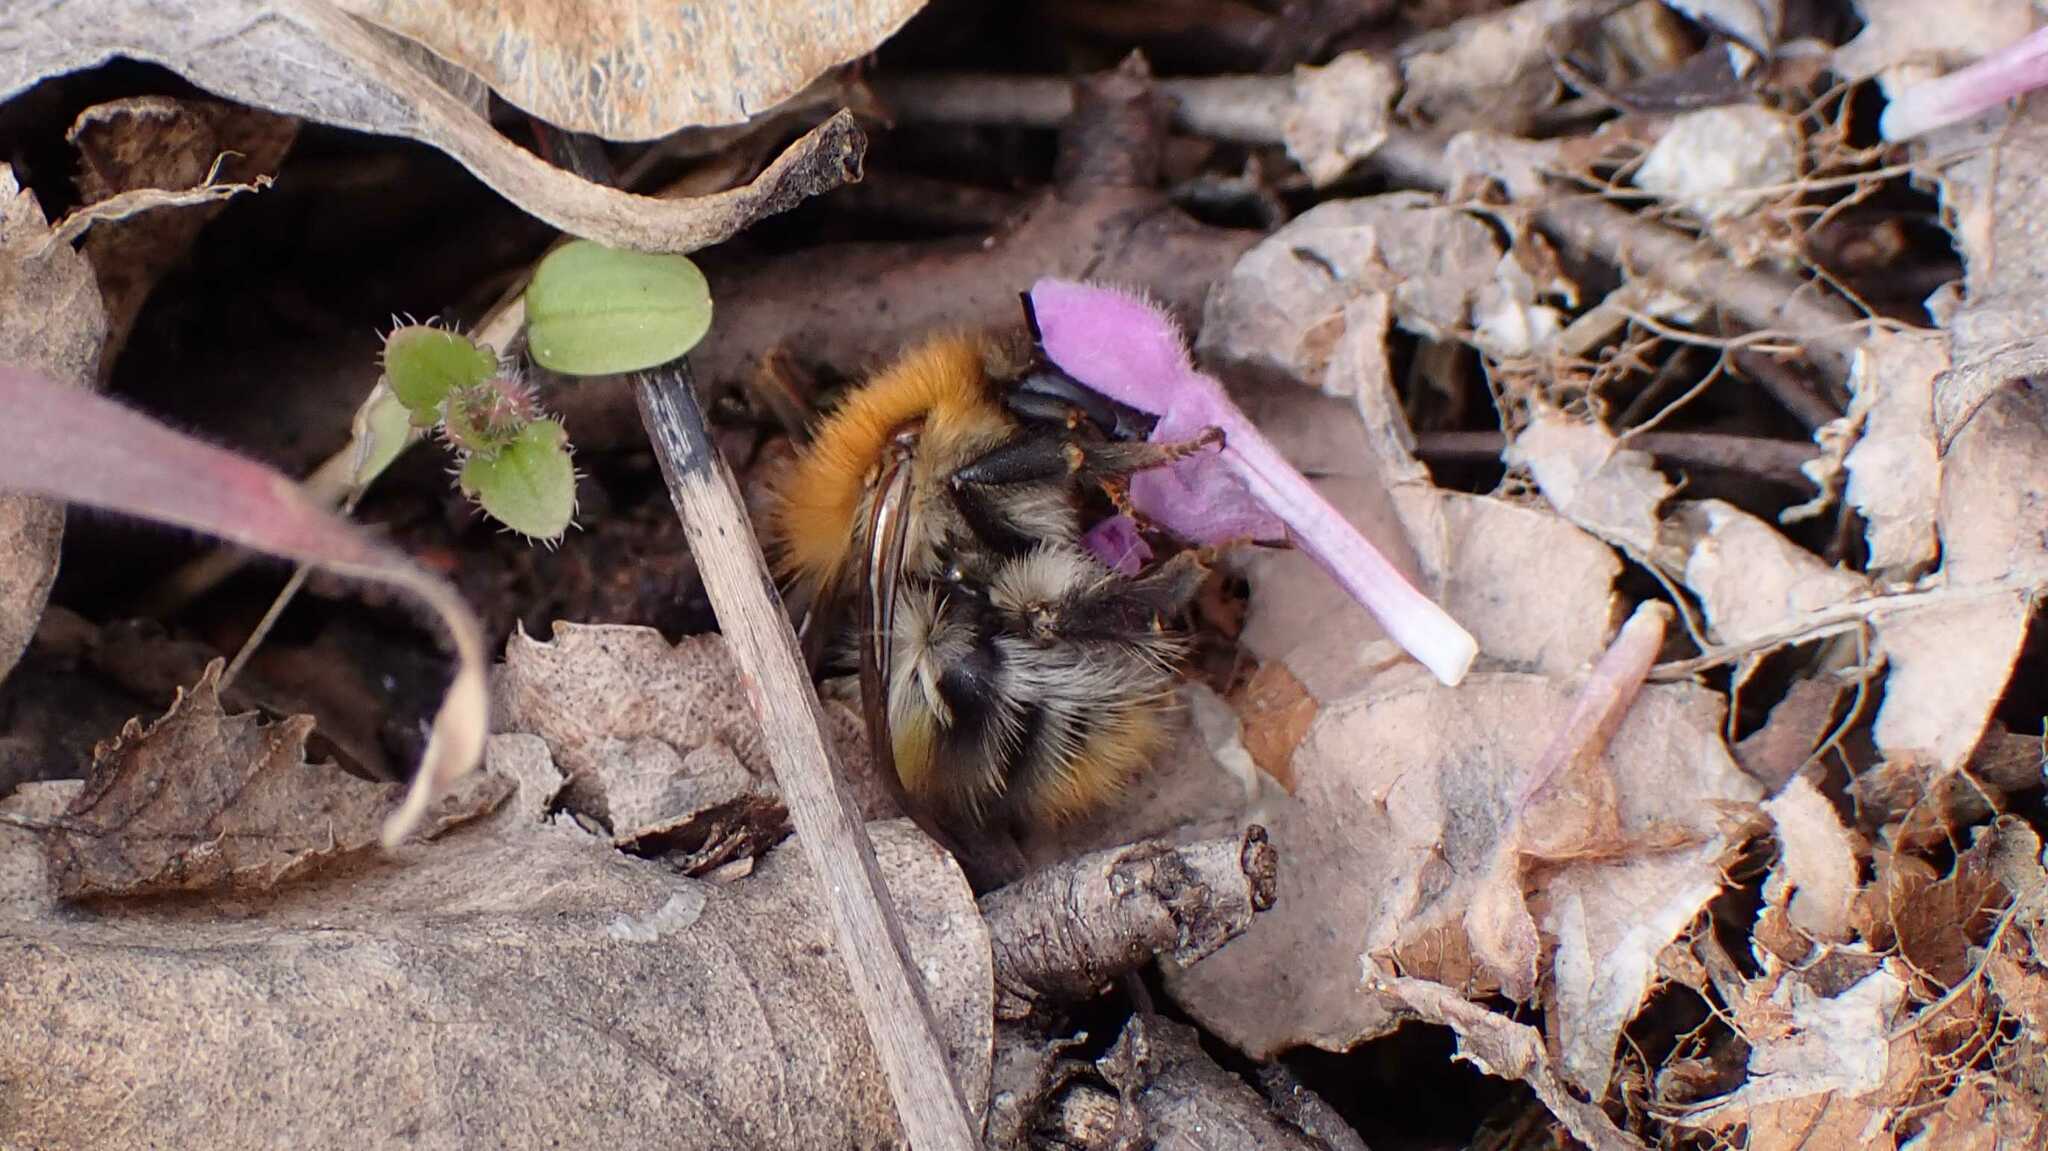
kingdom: Animalia
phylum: Arthropoda
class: Insecta
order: Hymenoptera
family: Apidae
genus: Bombus
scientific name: Bombus pascuorum
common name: Common carder bee
